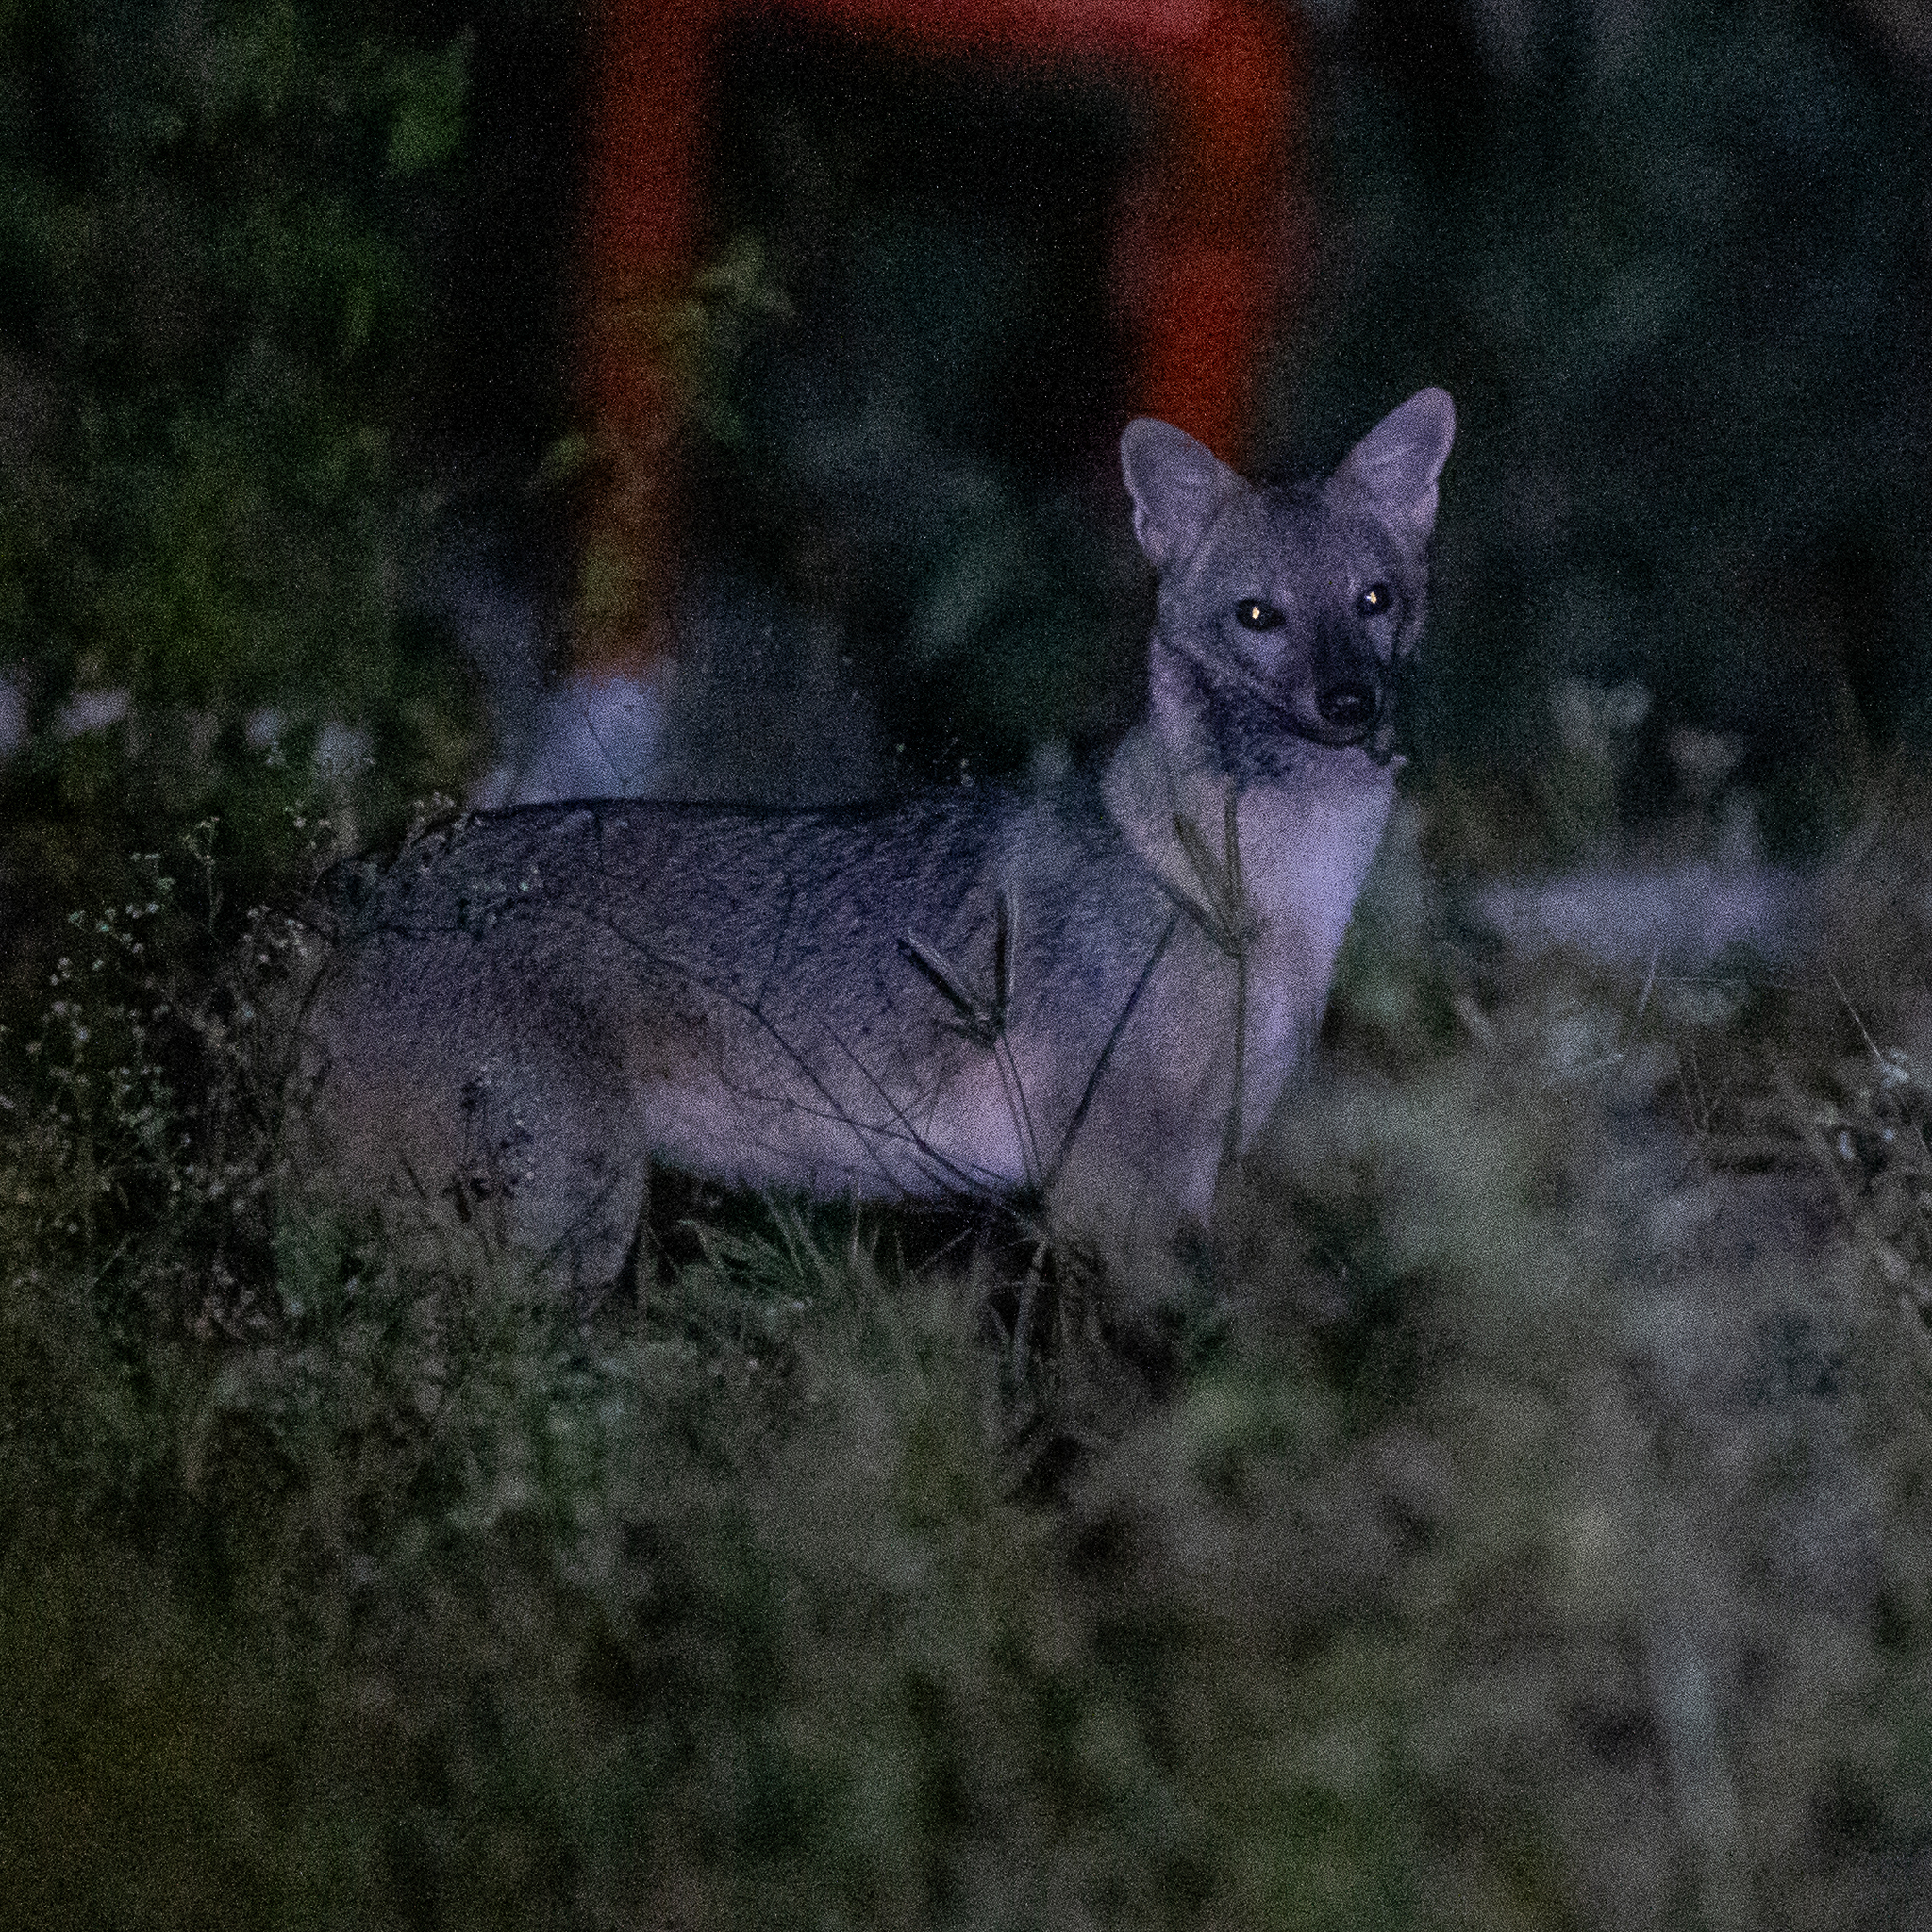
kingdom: Animalia
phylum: Chordata
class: Mammalia
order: Carnivora
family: Canidae
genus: Cerdocyon
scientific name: Cerdocyon thous
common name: Crab-eating fox
